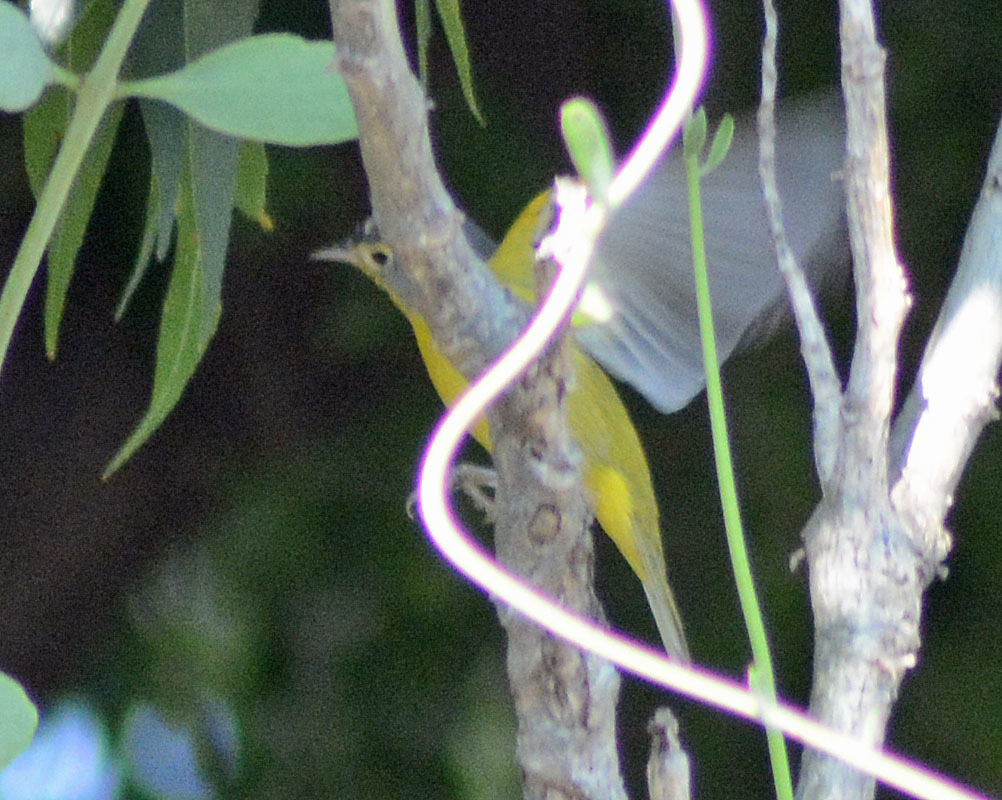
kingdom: Animalia
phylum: Chordata
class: Aves
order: Passeriformes
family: Parulidae
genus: Leiothlypis
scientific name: Leiothlypis ruficapilla
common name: Nashville warbler
